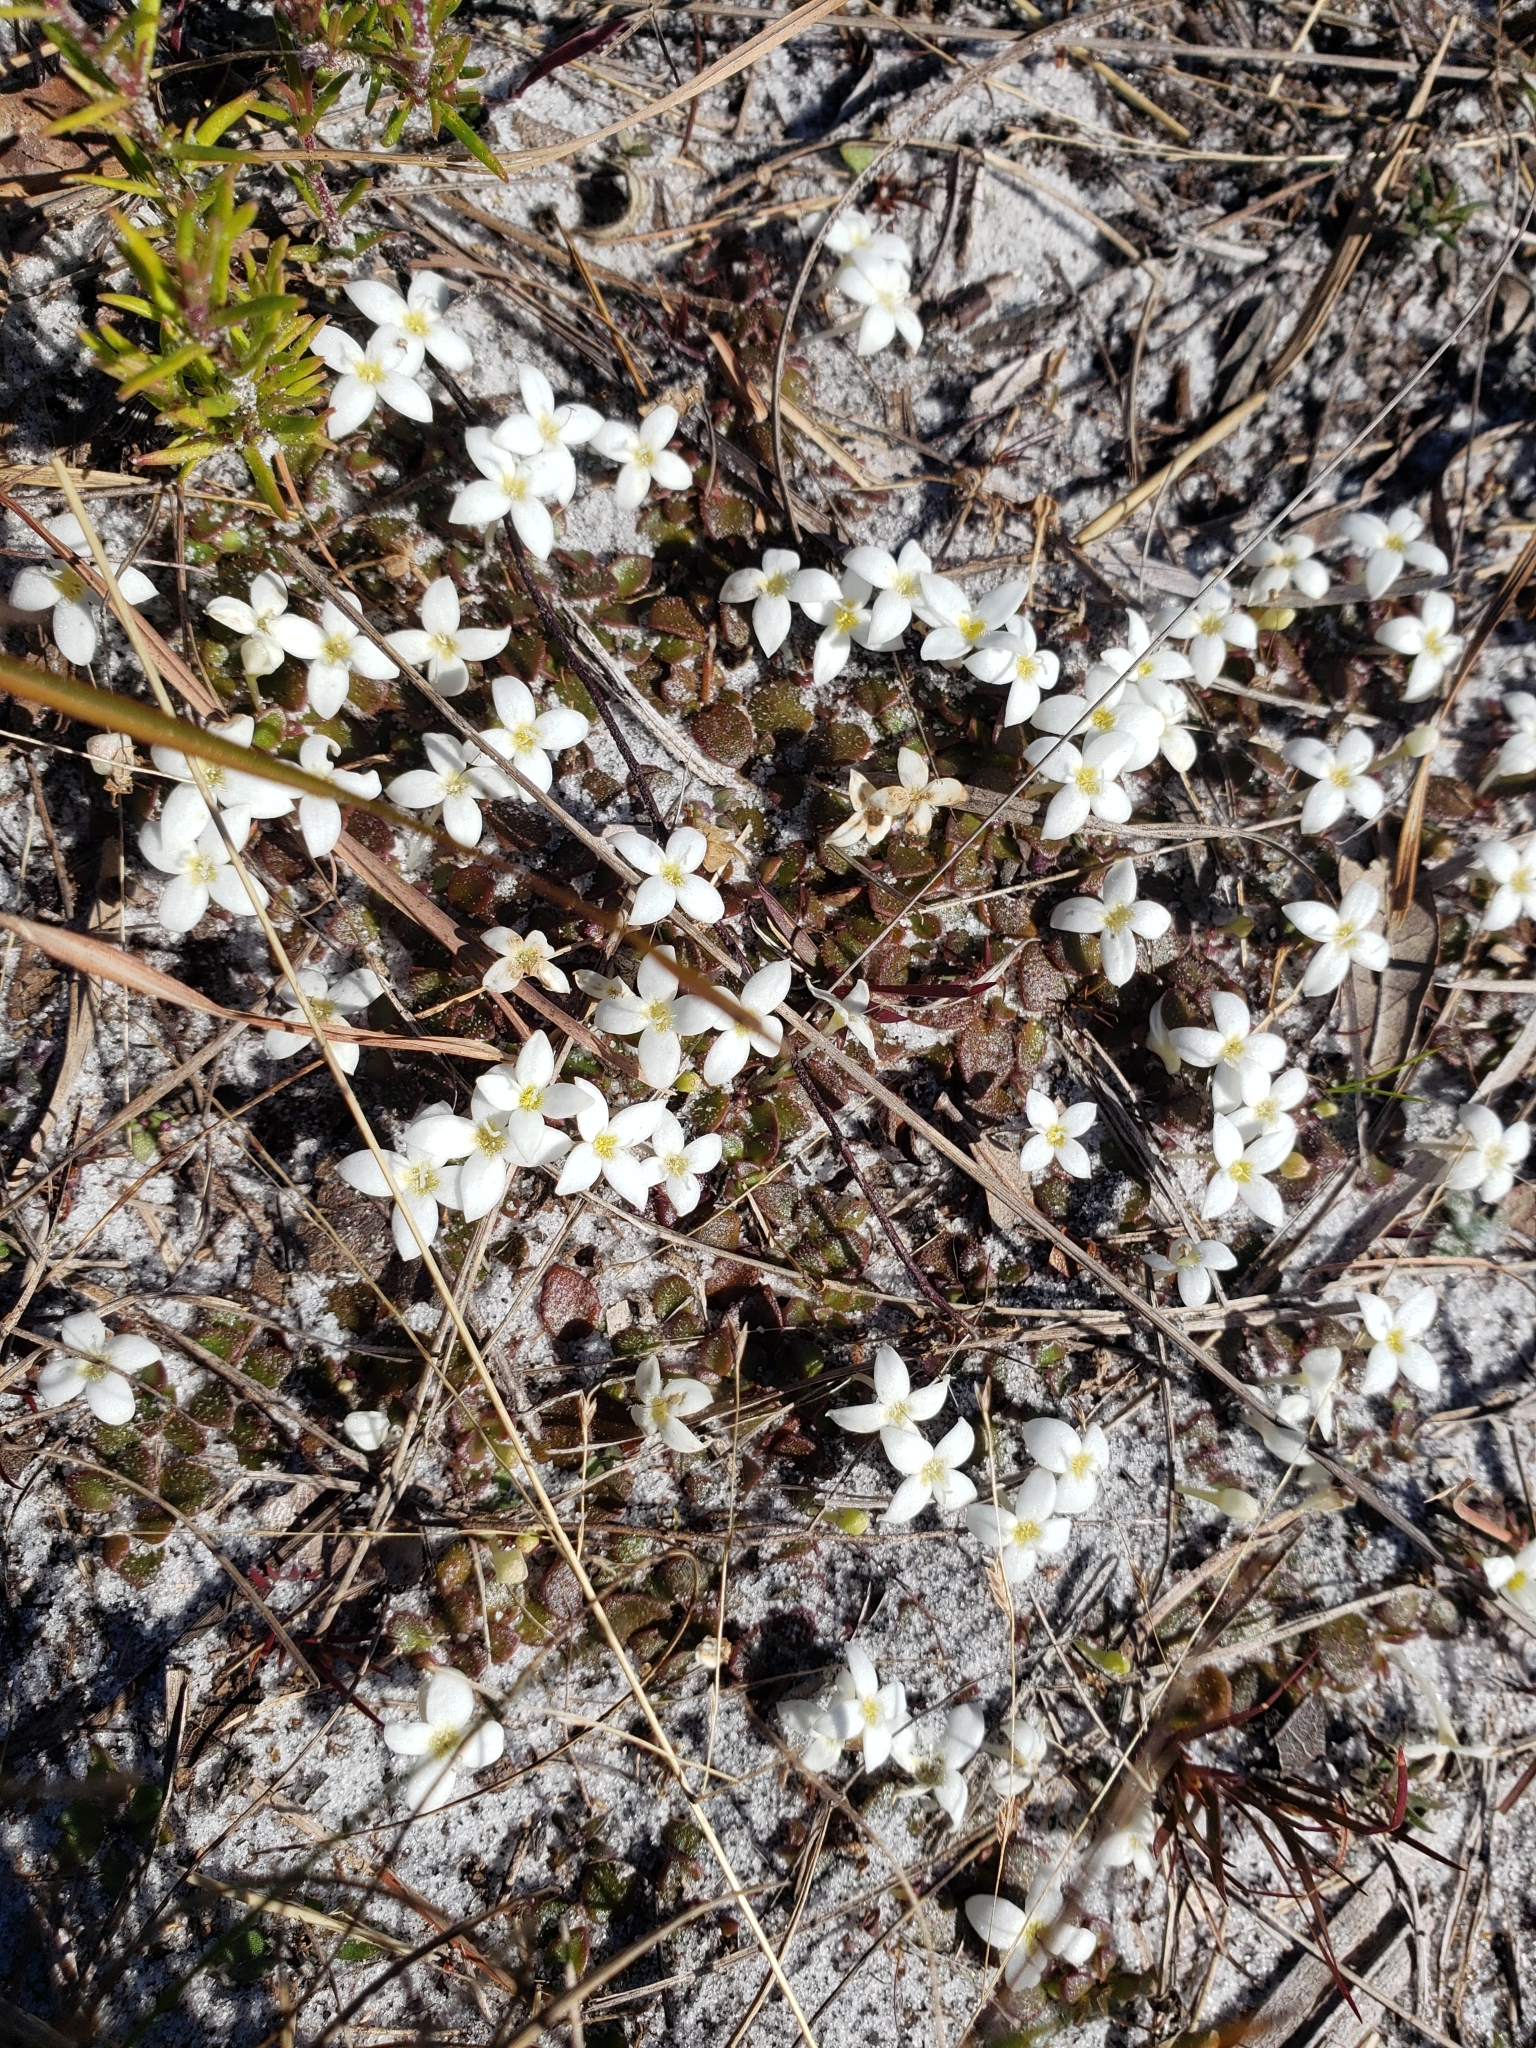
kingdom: Plantae
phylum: Tracheophyta
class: Magnoliopsida
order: Gentianales
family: Rubiaceae
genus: Houstonia
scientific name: Houstonia procumbens
